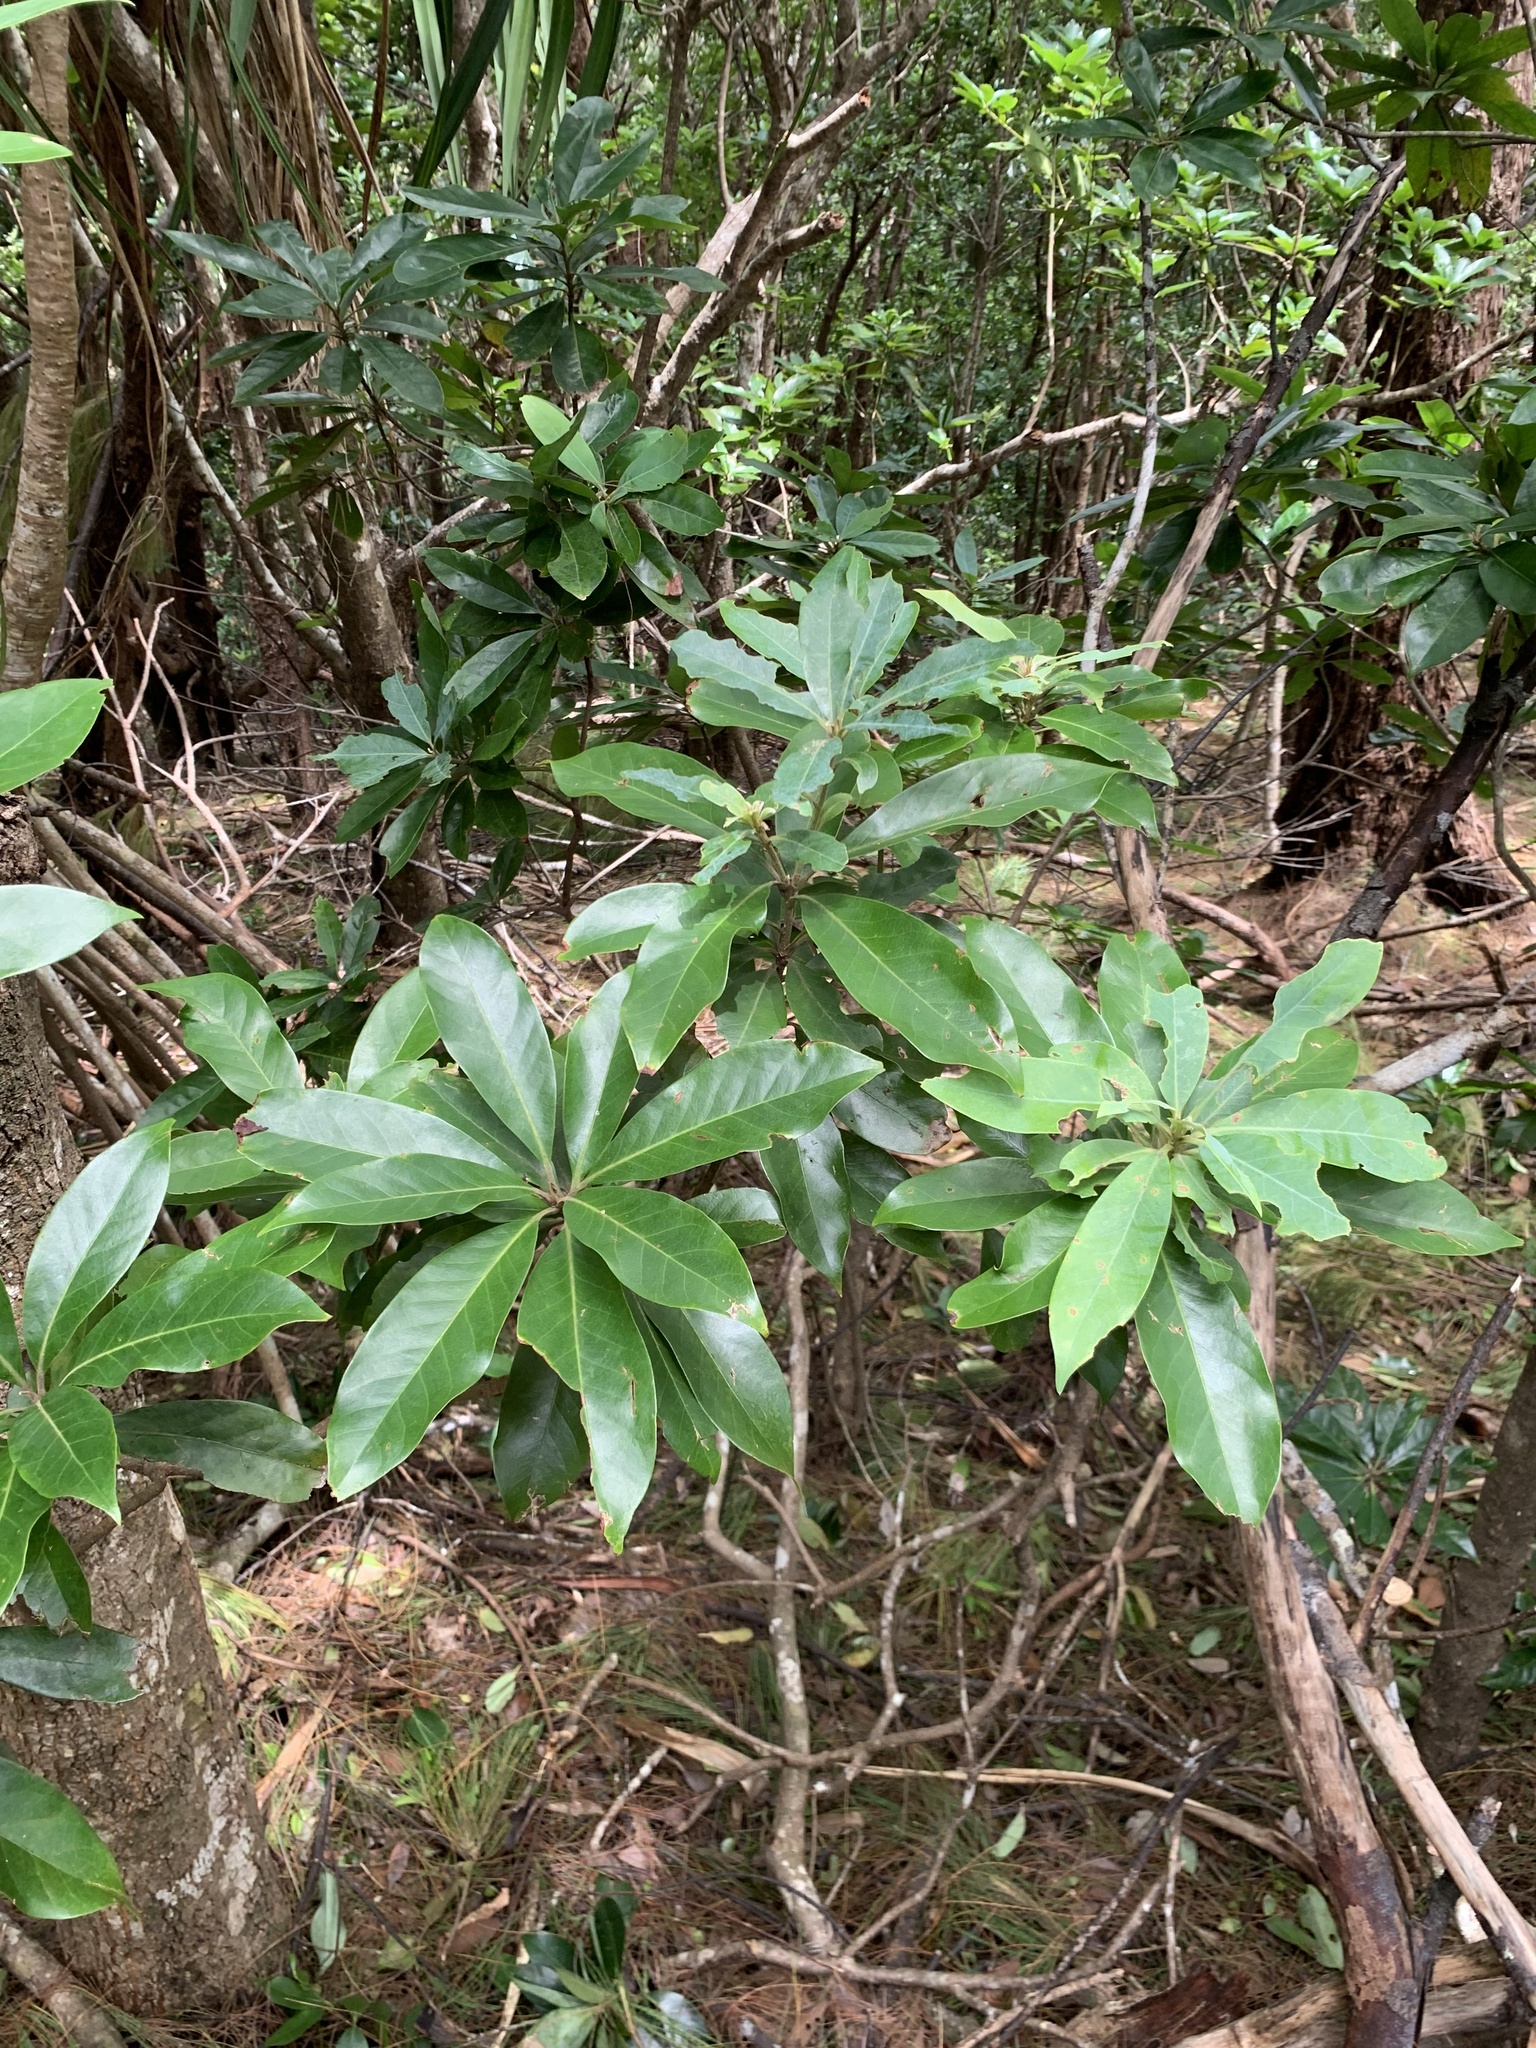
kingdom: Plantae
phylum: Tracheophyta
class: Magnoliopsida
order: Ericales
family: Theaceae
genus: Schima
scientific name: Schima mertensiana
